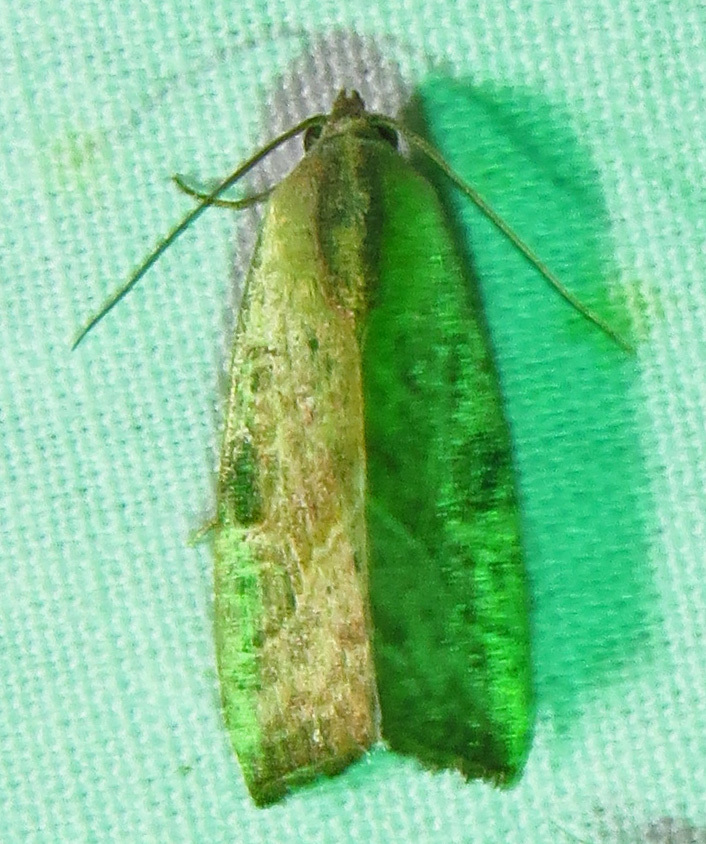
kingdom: Animalia
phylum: Arthropoda
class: Insecta
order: Lepidoptera
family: Noctuidae
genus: Galgula
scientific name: Galgula partita
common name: Wedgeling
